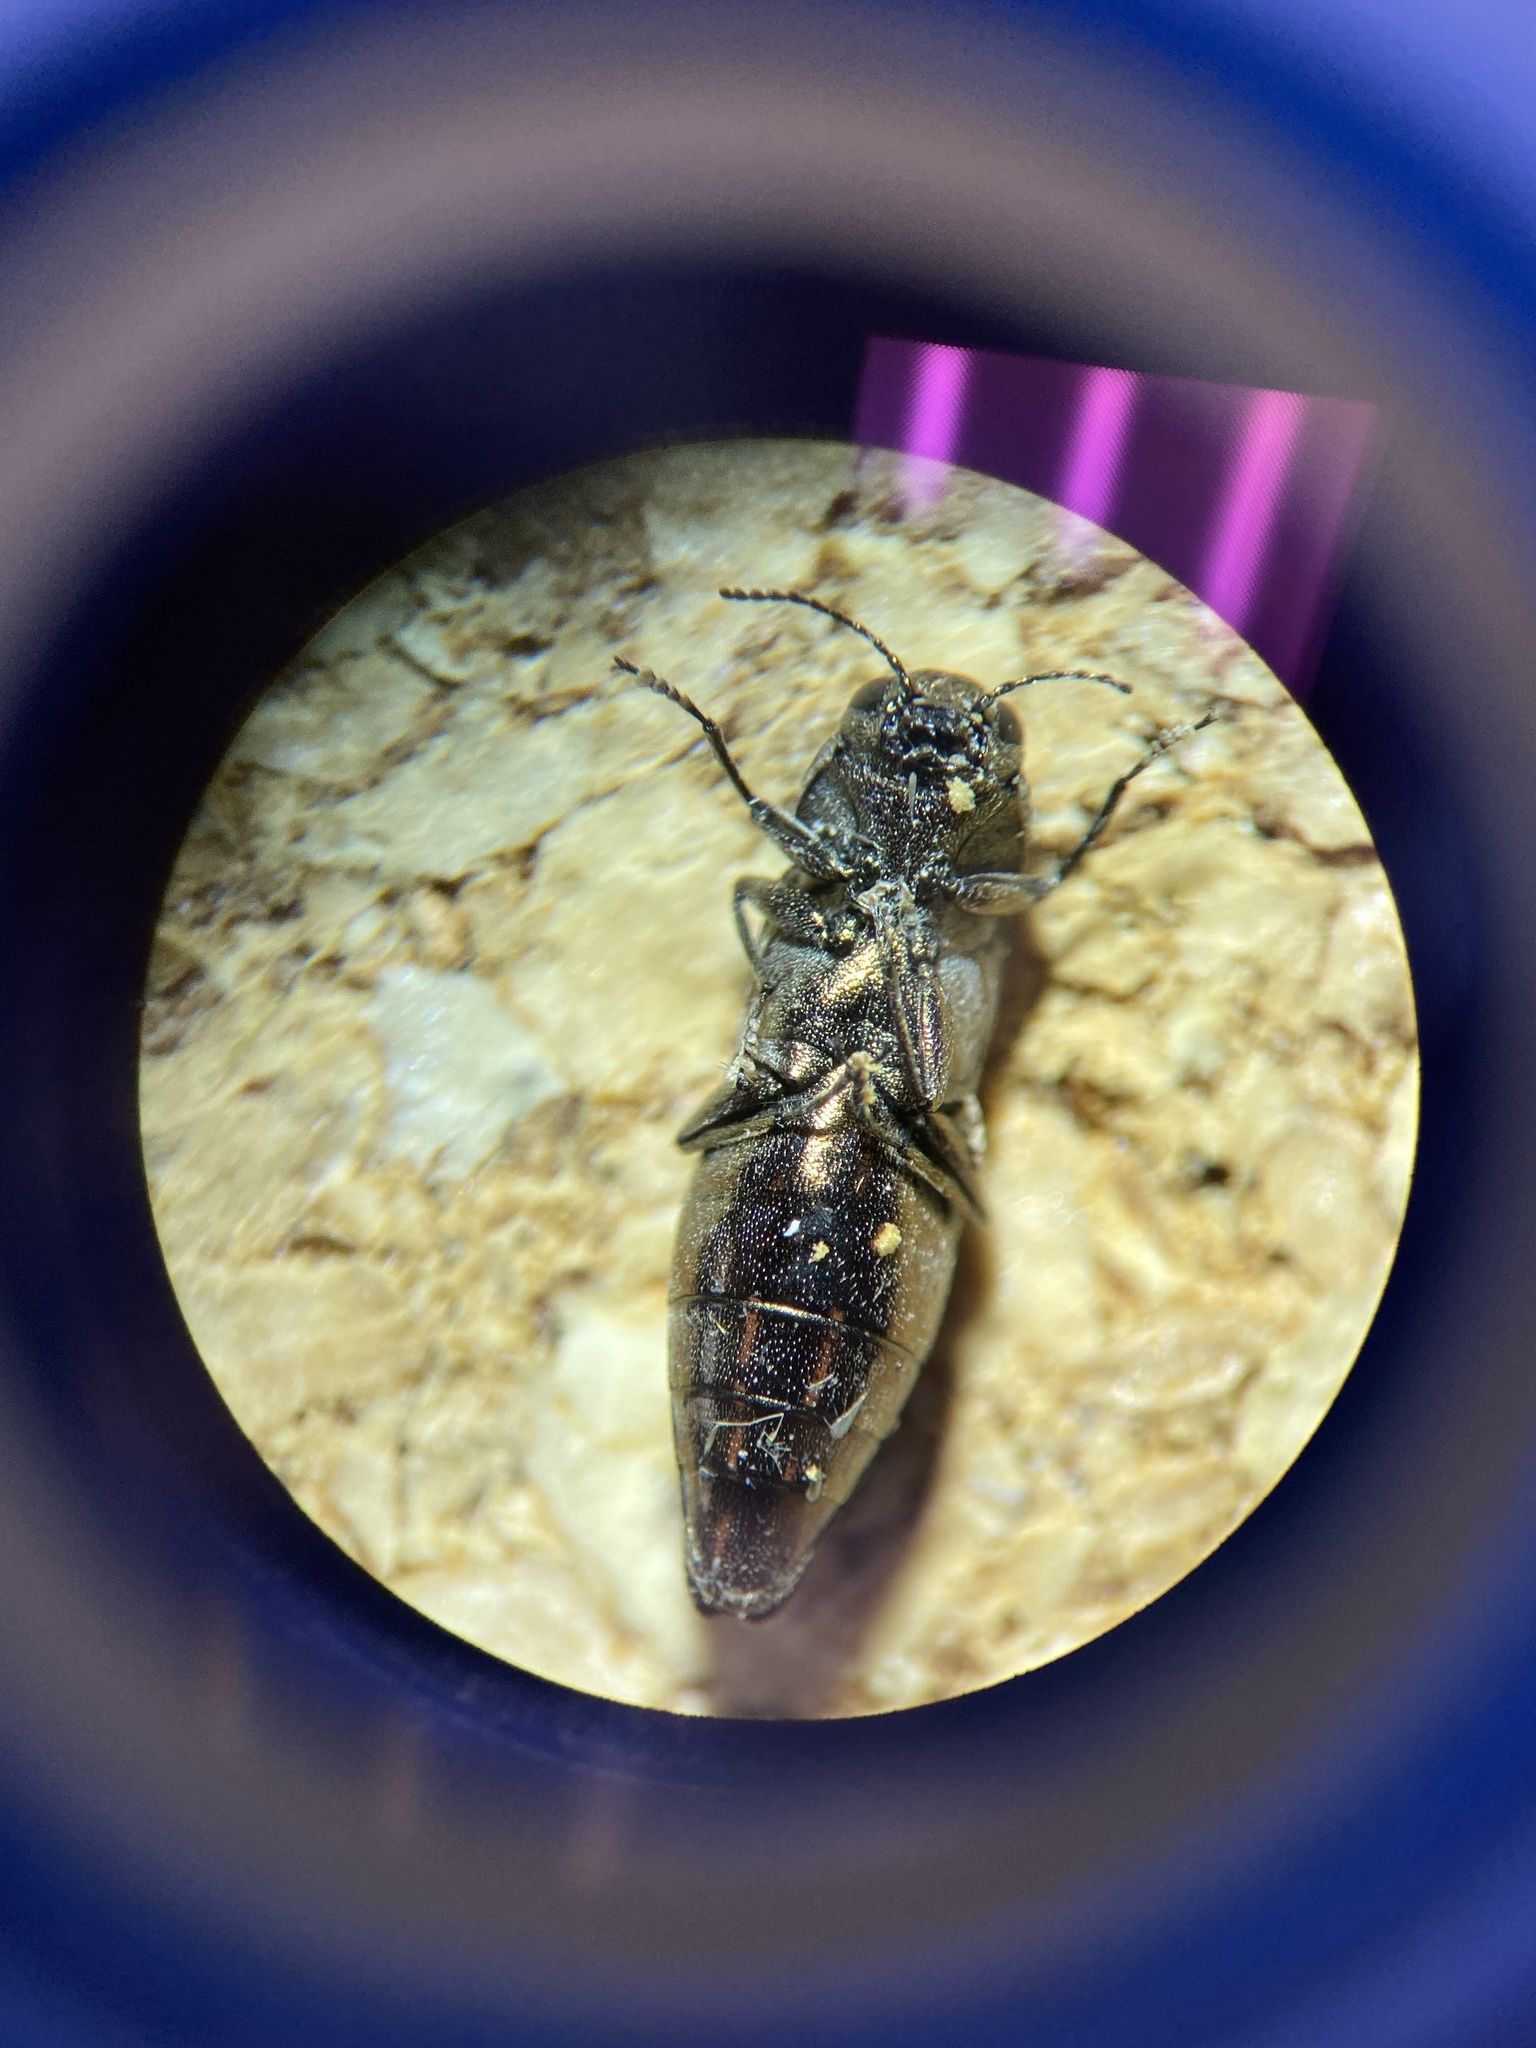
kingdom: Animalia
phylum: Arthropoda
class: Insecta
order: Coleoptera
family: Buprestidae
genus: Agrilus
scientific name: Agrilus lecontei
